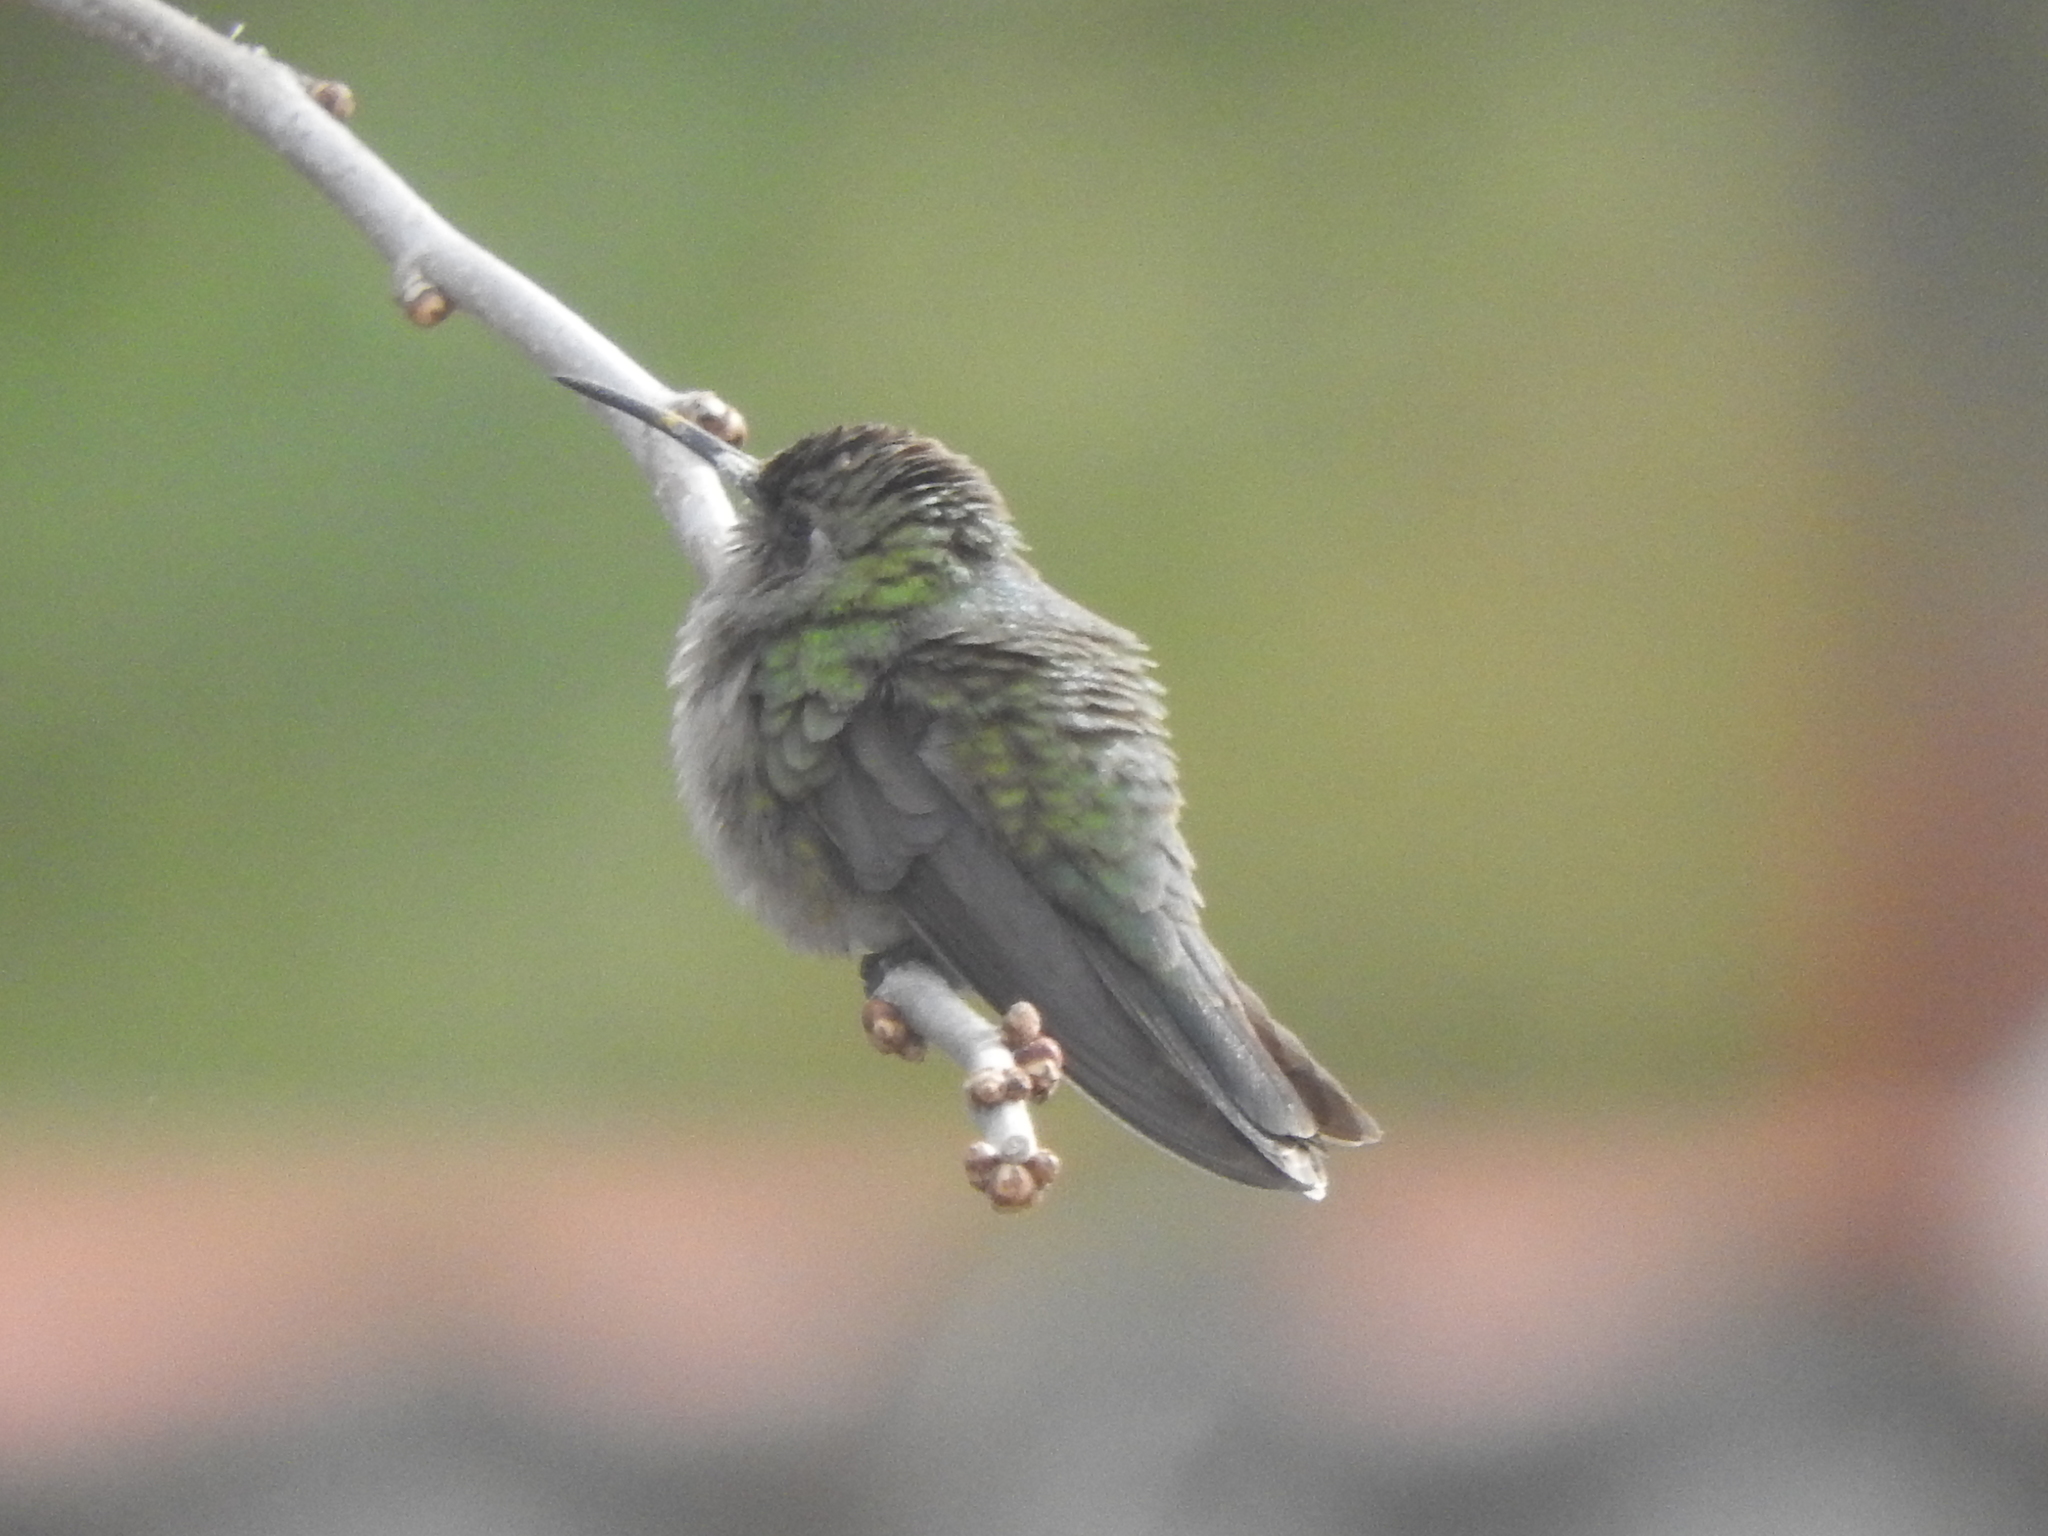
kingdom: Animalia
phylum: Chordata
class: Aves
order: Apodiformes
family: Trochilidae
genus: Cynanthus
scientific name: Cynanthus latirostris
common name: Broad-billed hummingbird
